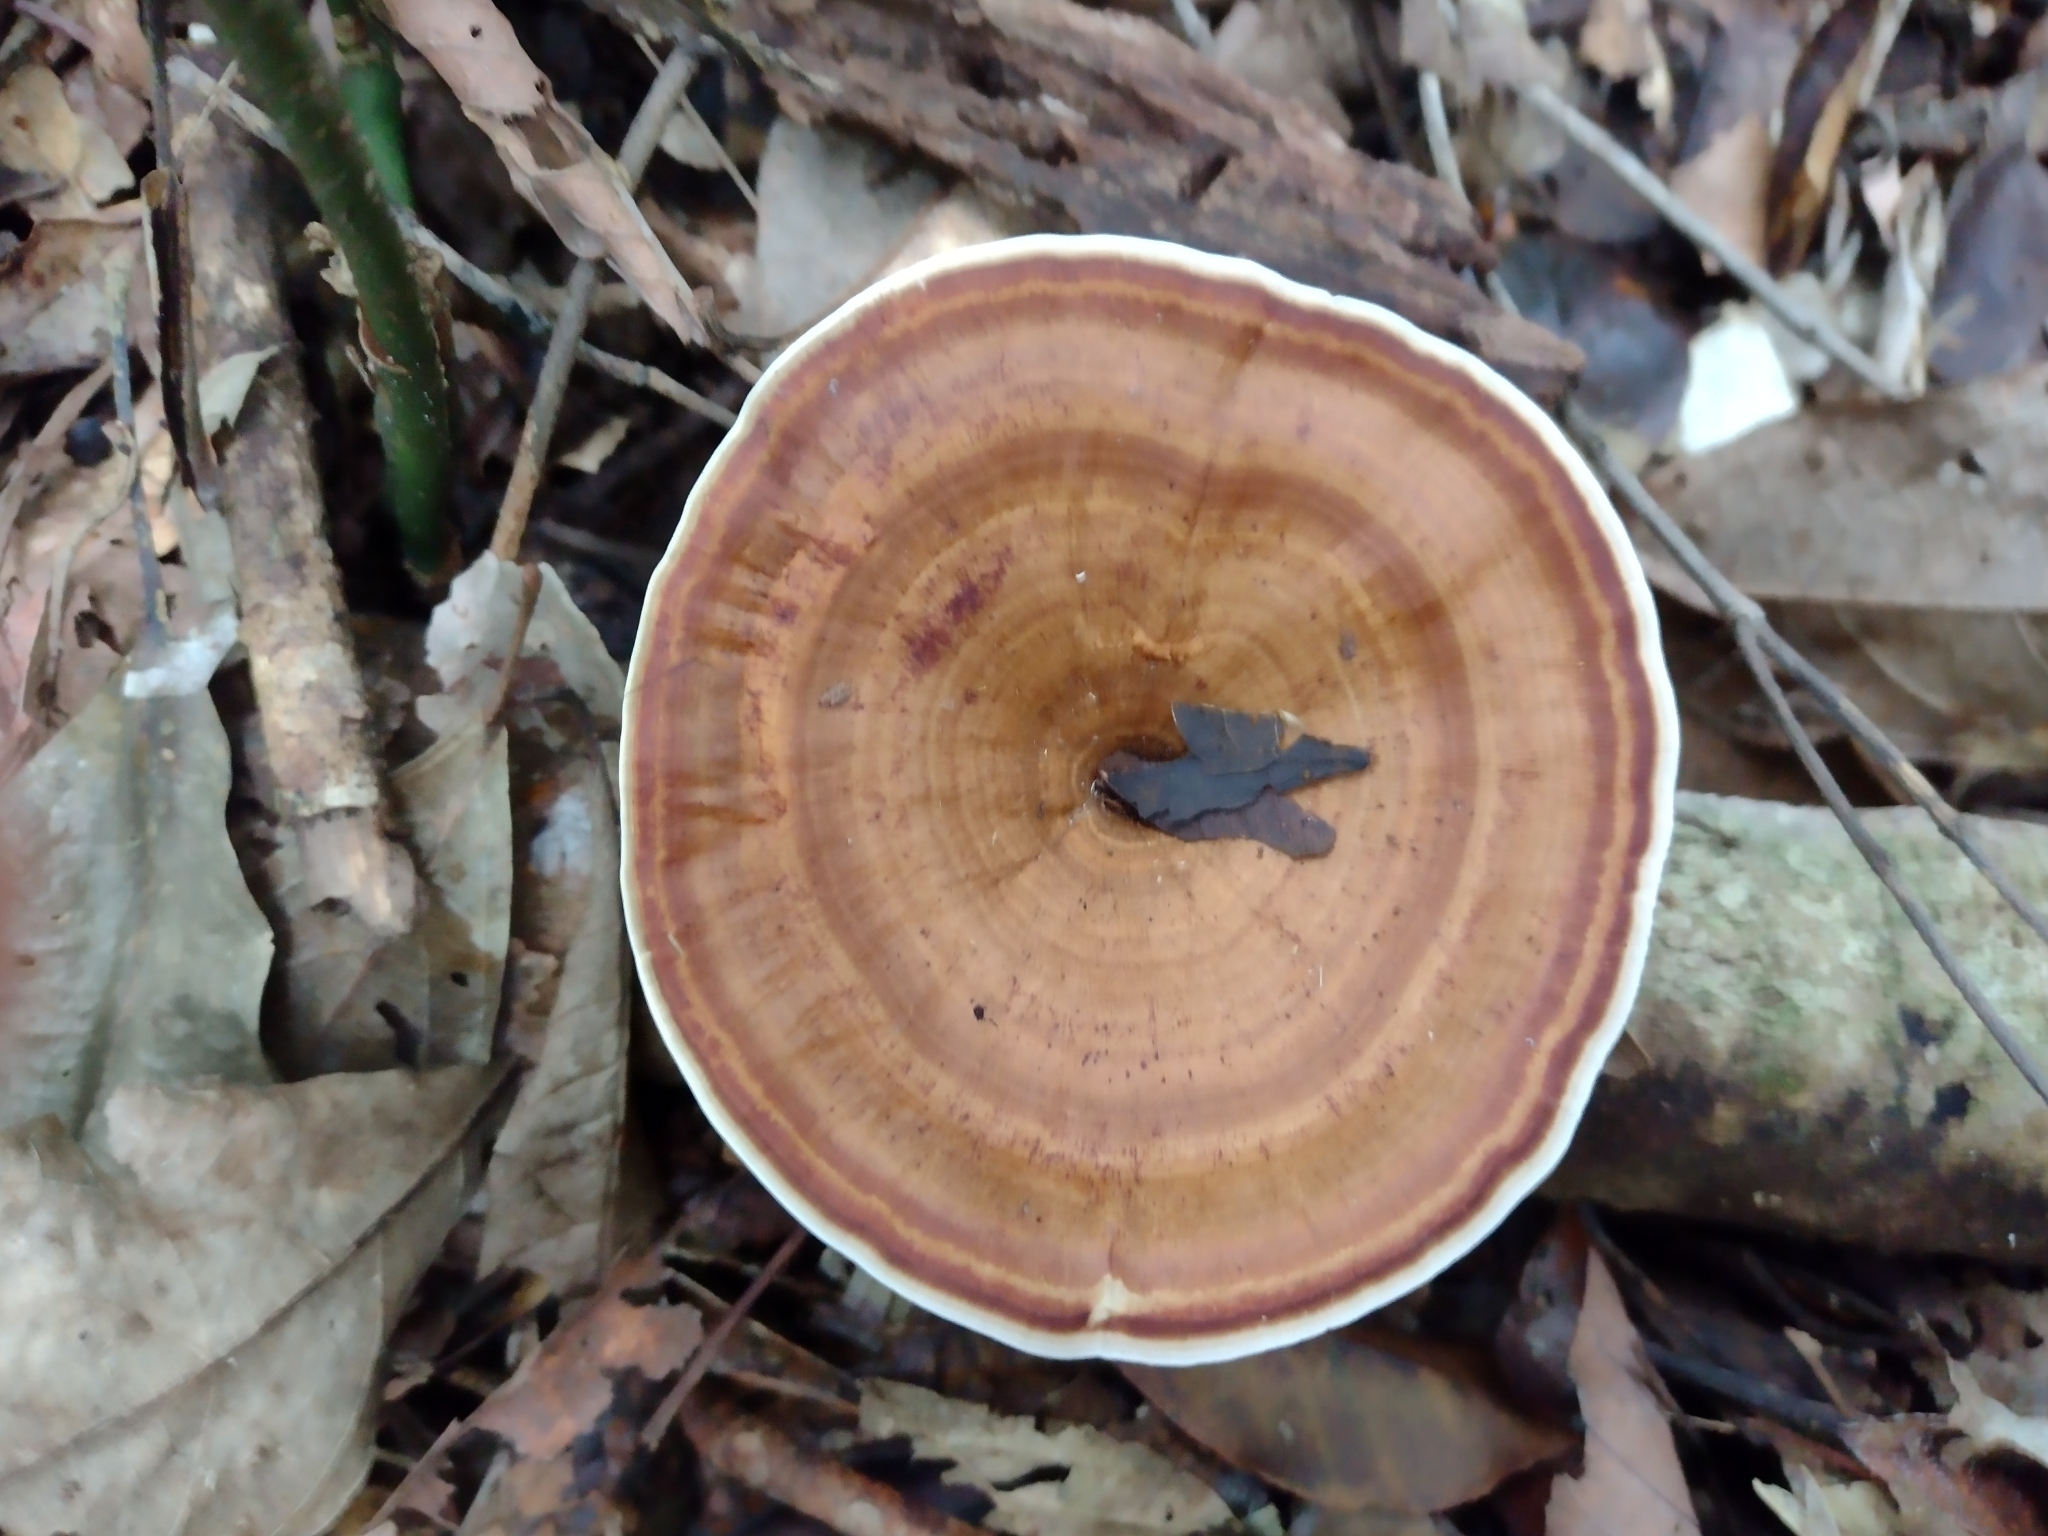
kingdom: Fungi
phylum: Basidiomycota
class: Agaricomycetes
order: Polyporales
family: Polyporaceae
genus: Microporus
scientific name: Microporus xanthopus
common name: Yellow-stemmed micropore
